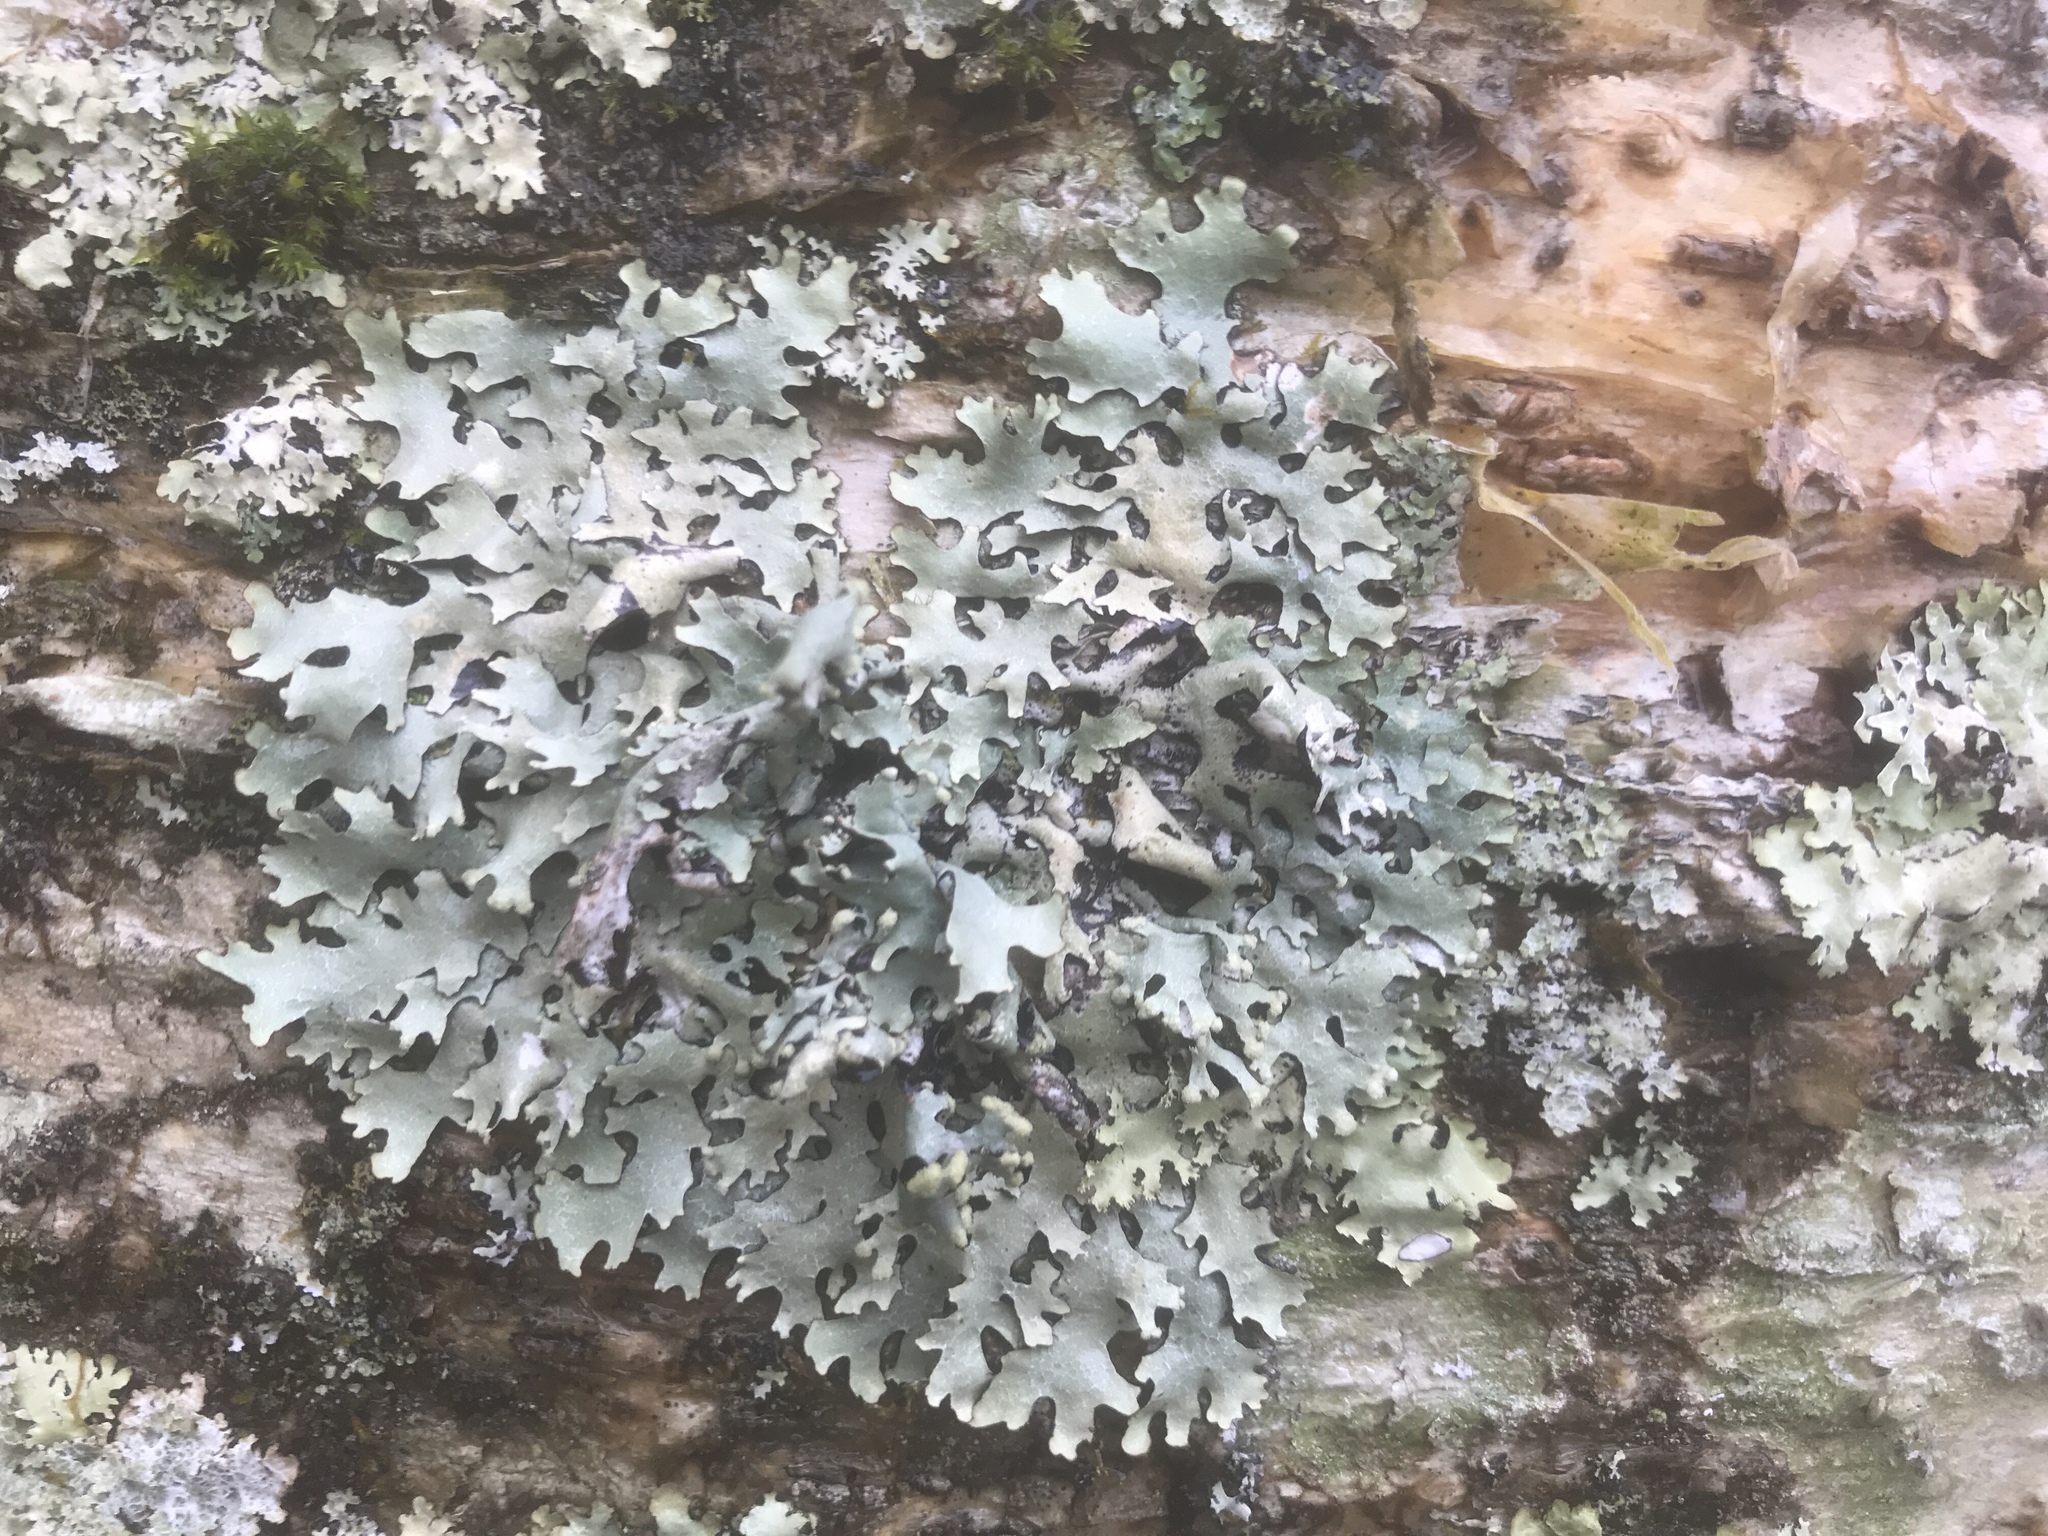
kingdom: Fungi
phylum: Ascomycota
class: Lecanoromycetes
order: Lecanorales
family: Parmeliaceae
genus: Parmelia
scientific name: Parmelia sulcata
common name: Netted shield lichen
